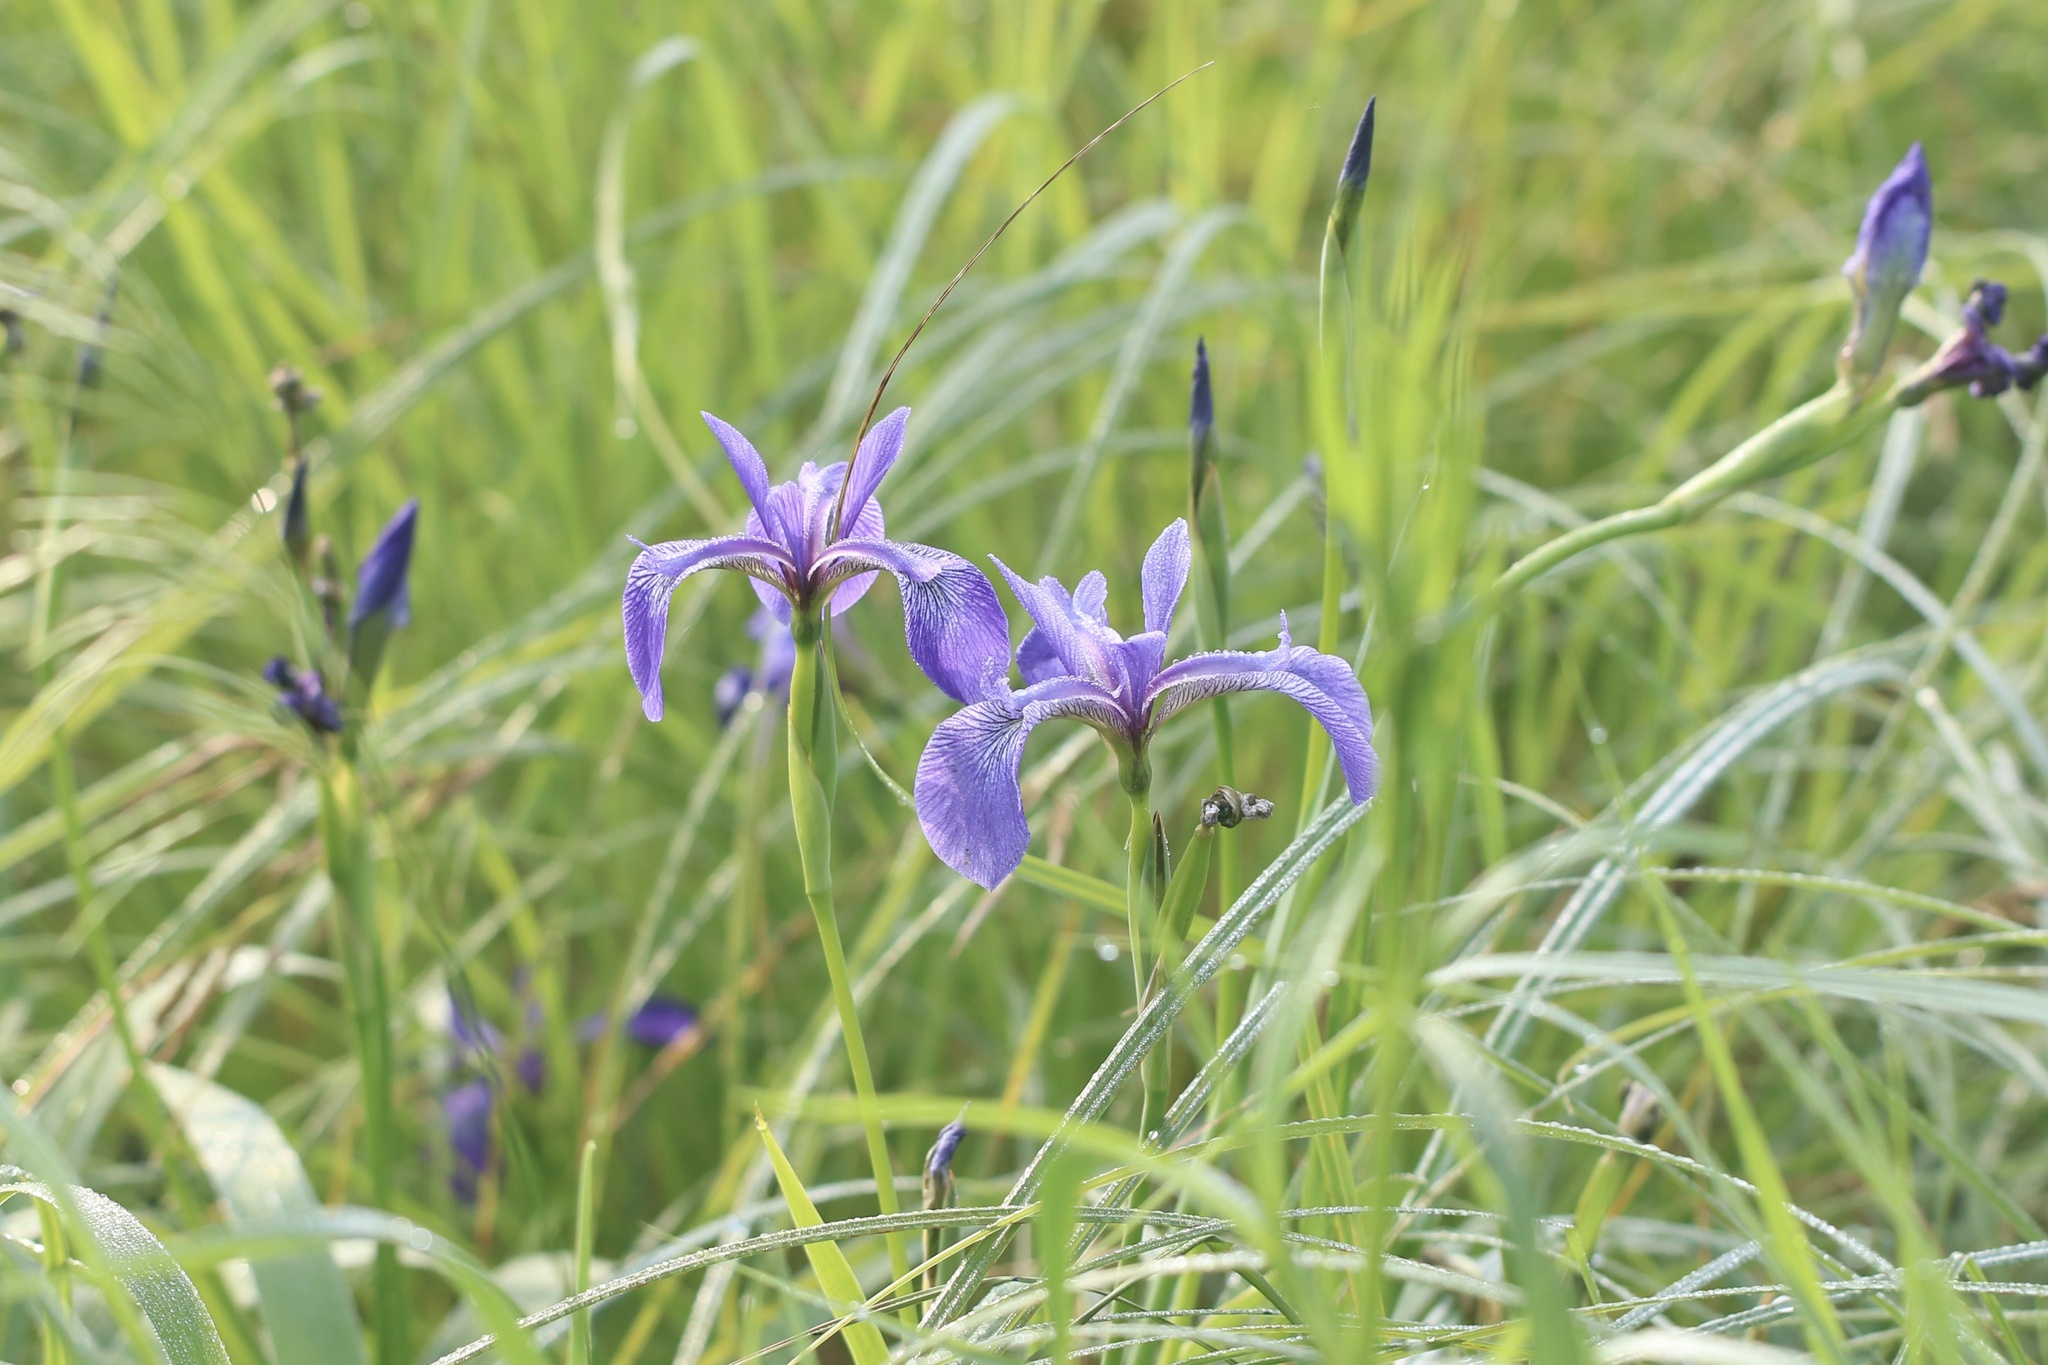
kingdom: Plantae
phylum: Tracheophyta
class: Liliopsida
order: Asparagales
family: Iridaceae
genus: Iris
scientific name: Iris versicolor
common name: Purple iris
